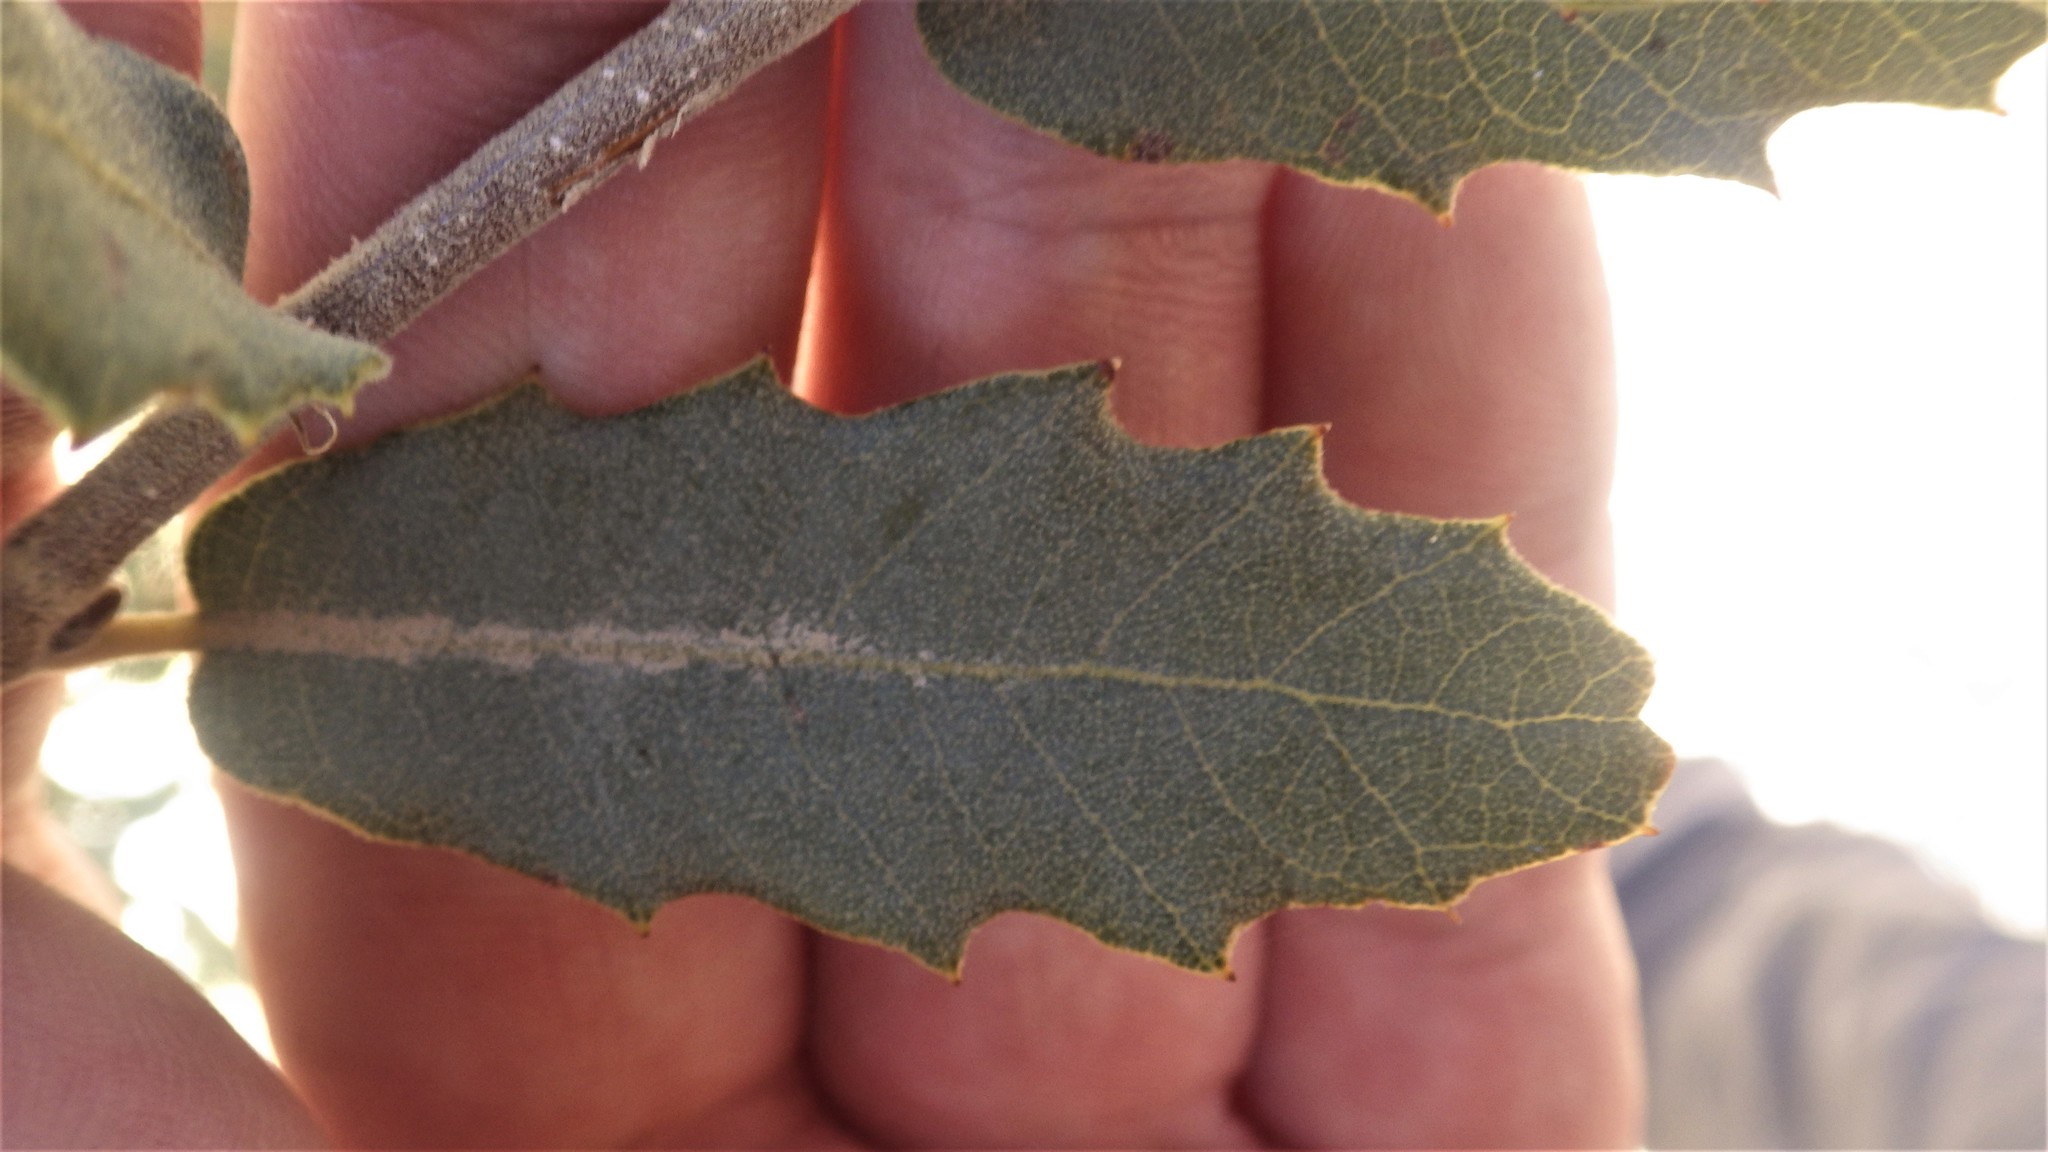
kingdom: Plantae
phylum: Tracheophyta
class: Magnoliopsida
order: Fagales
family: Fagaceae
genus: Quercus
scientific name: Quercus turbinella
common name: Sonoran scrub oak
